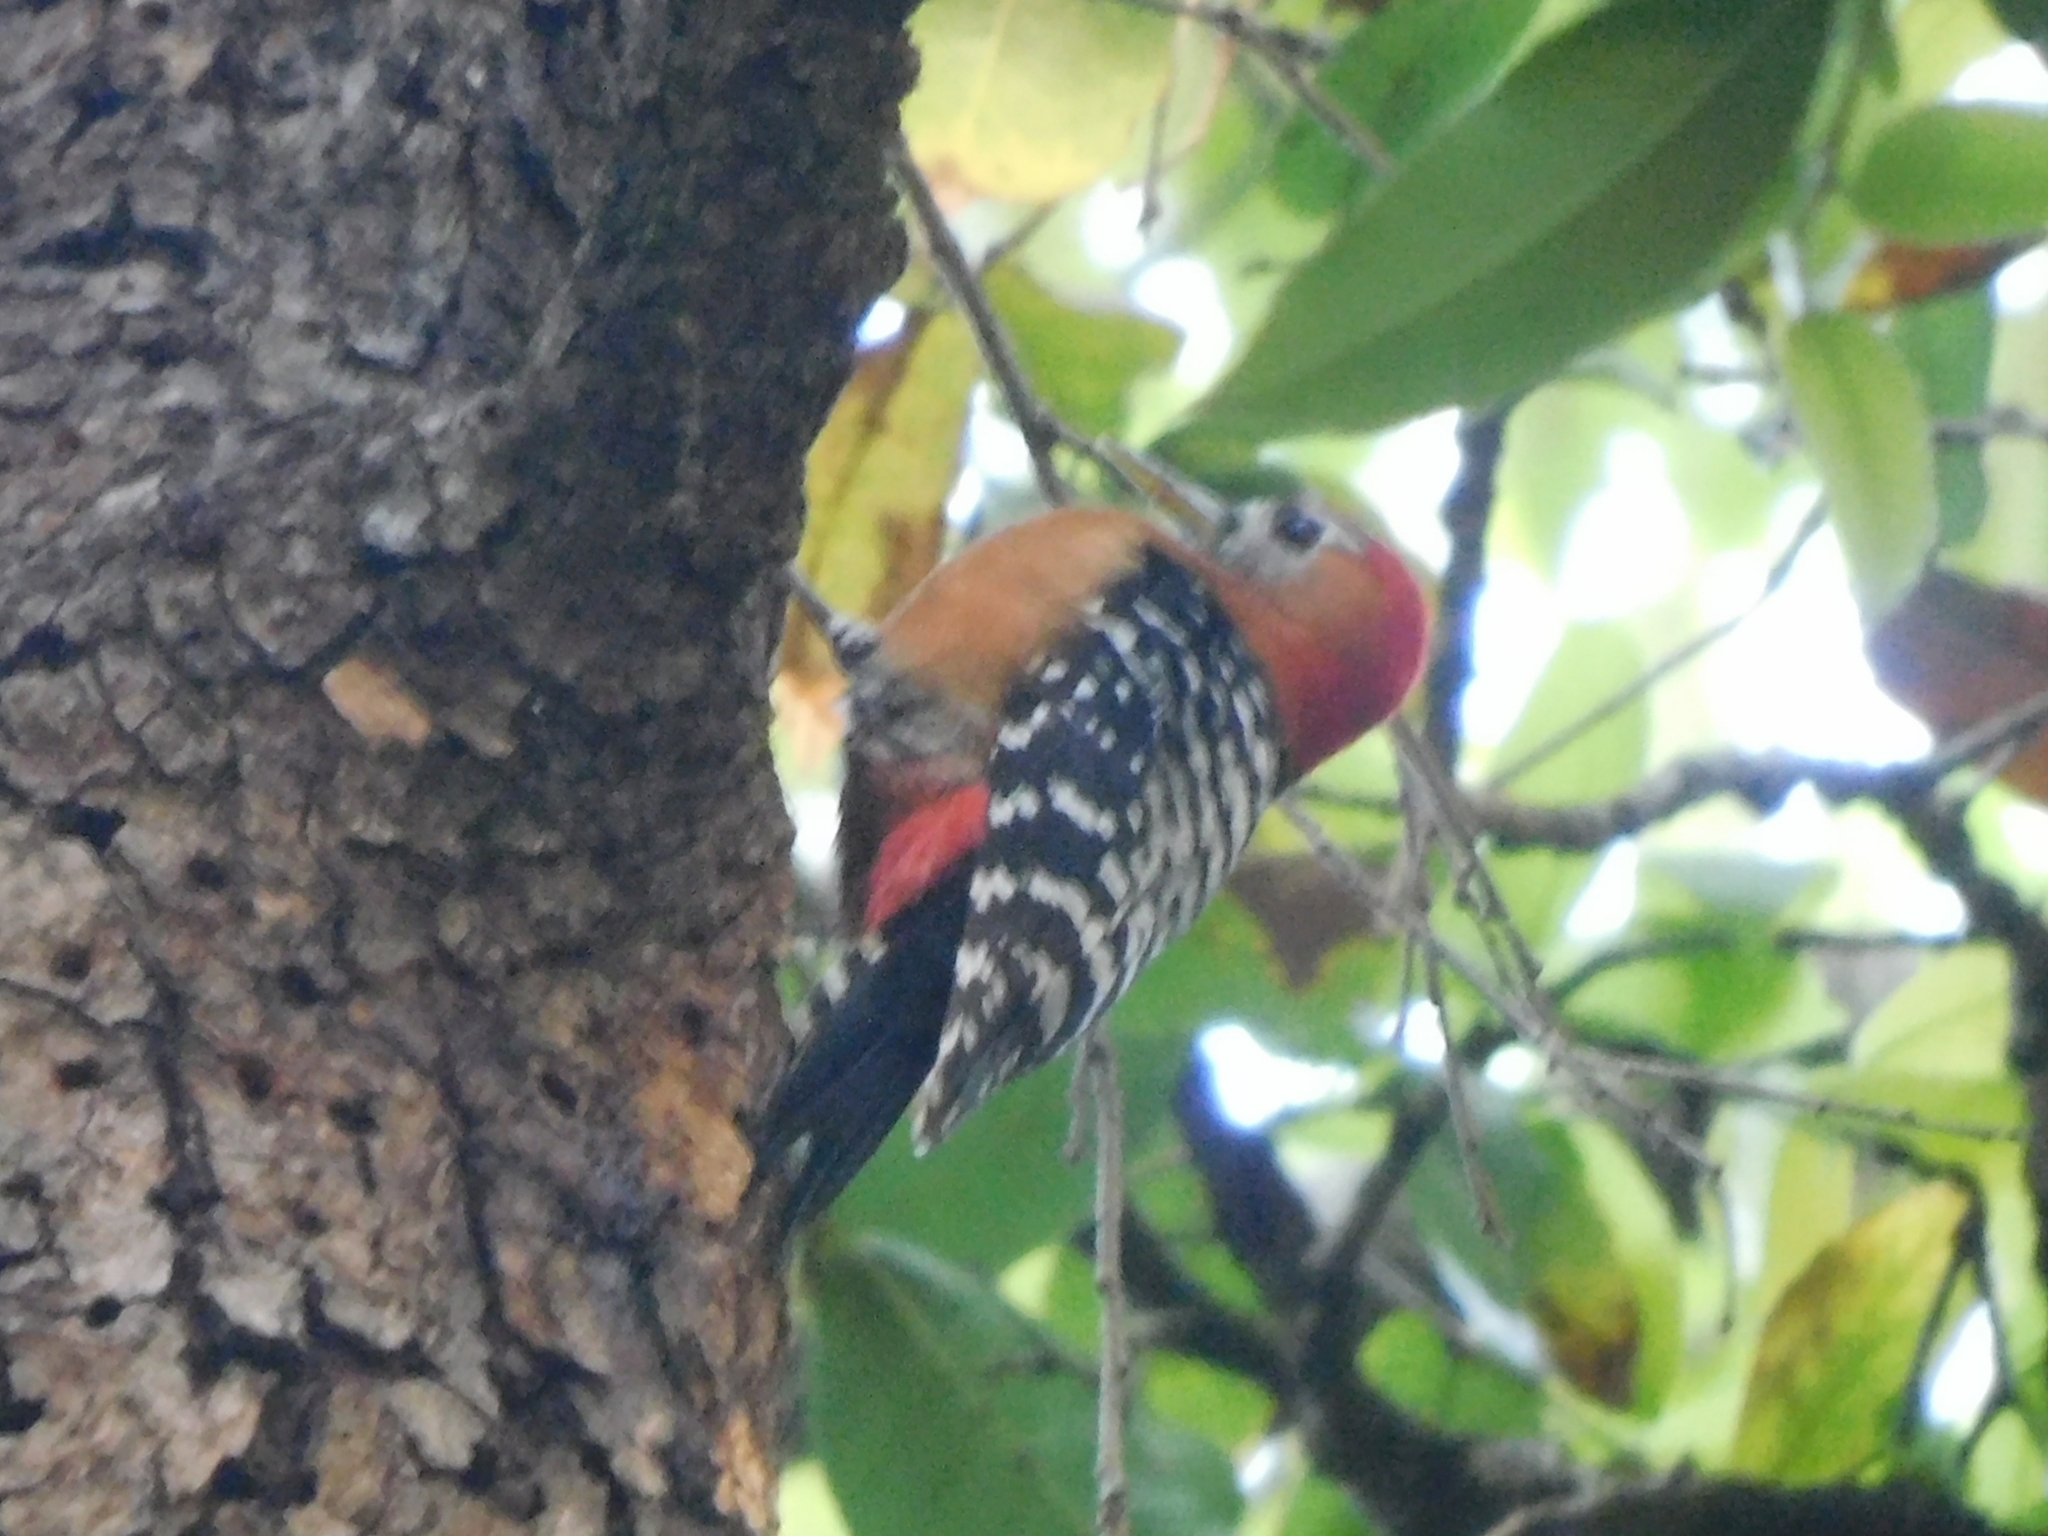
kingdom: Animalia
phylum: Chordata
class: Aves
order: Piciformes
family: Picidae
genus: Dendrocopos
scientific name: Dendrocopos hyperythrus
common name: Rufous-bellied woodpecker
